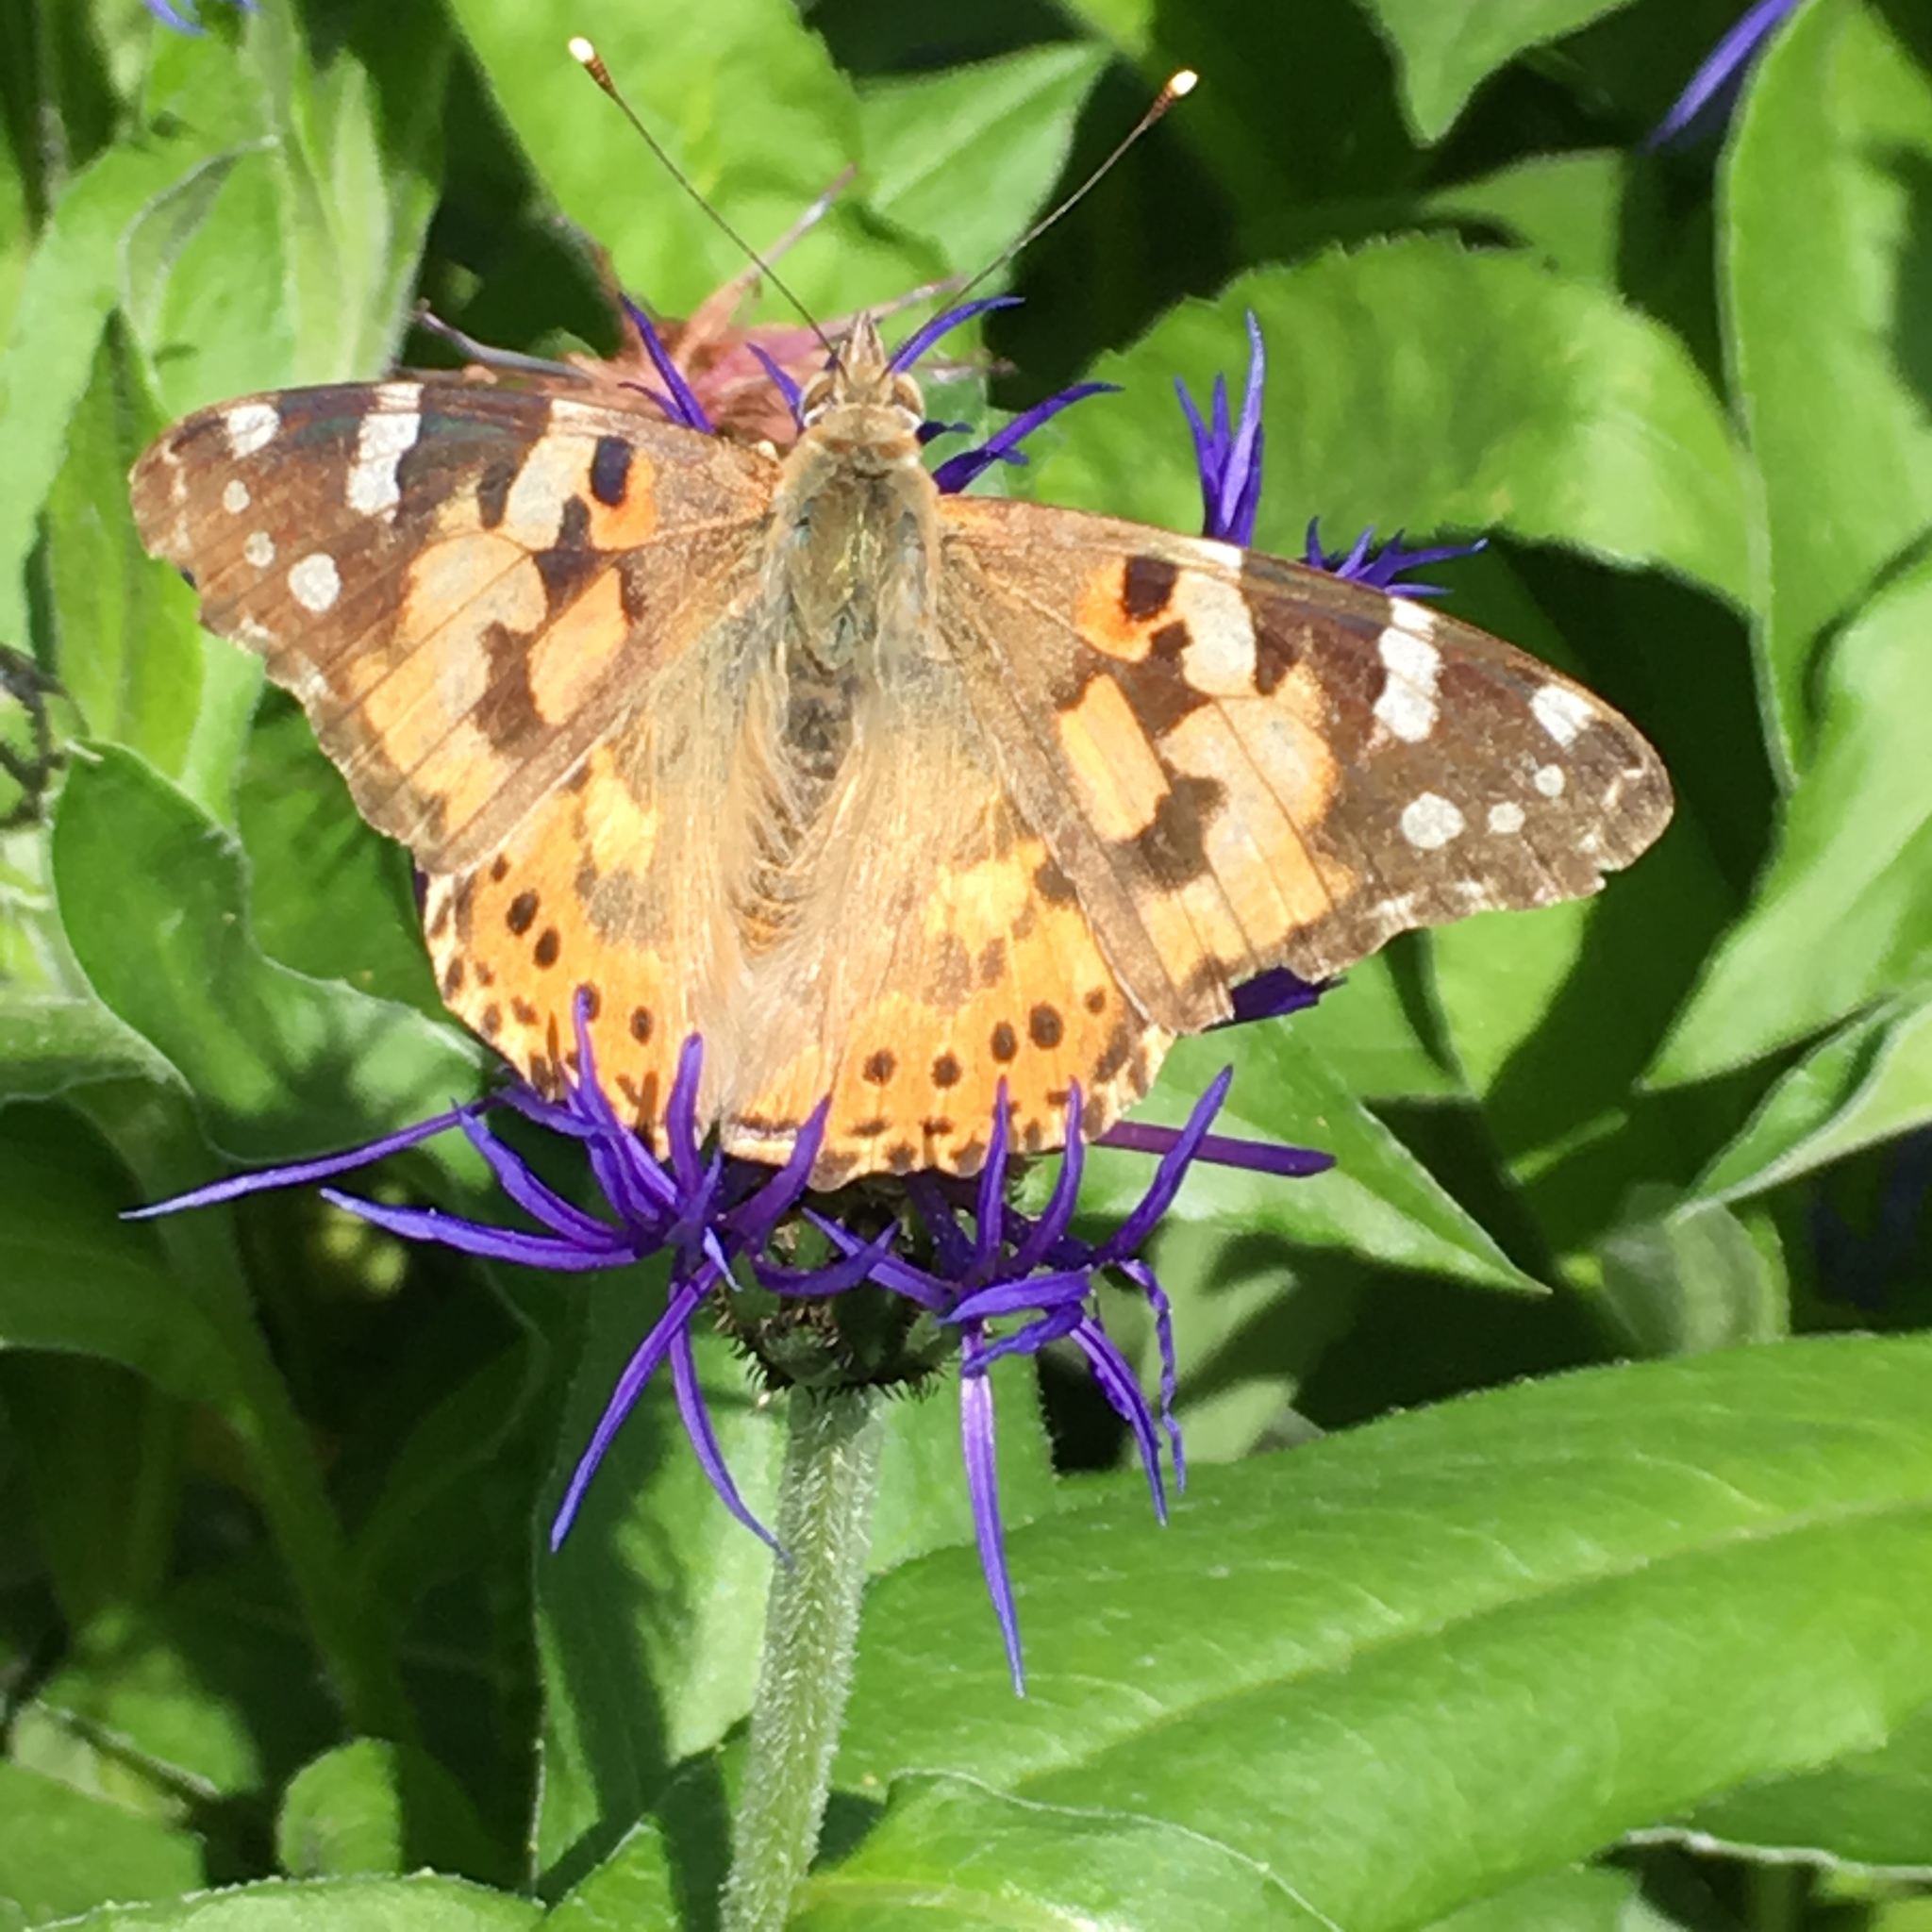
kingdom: Animalia
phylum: Arthropoda
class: Insecta
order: Lepidoptera
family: Nymphalidae
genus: Vanessa
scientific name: Vanessa cardui
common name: Painted lady
